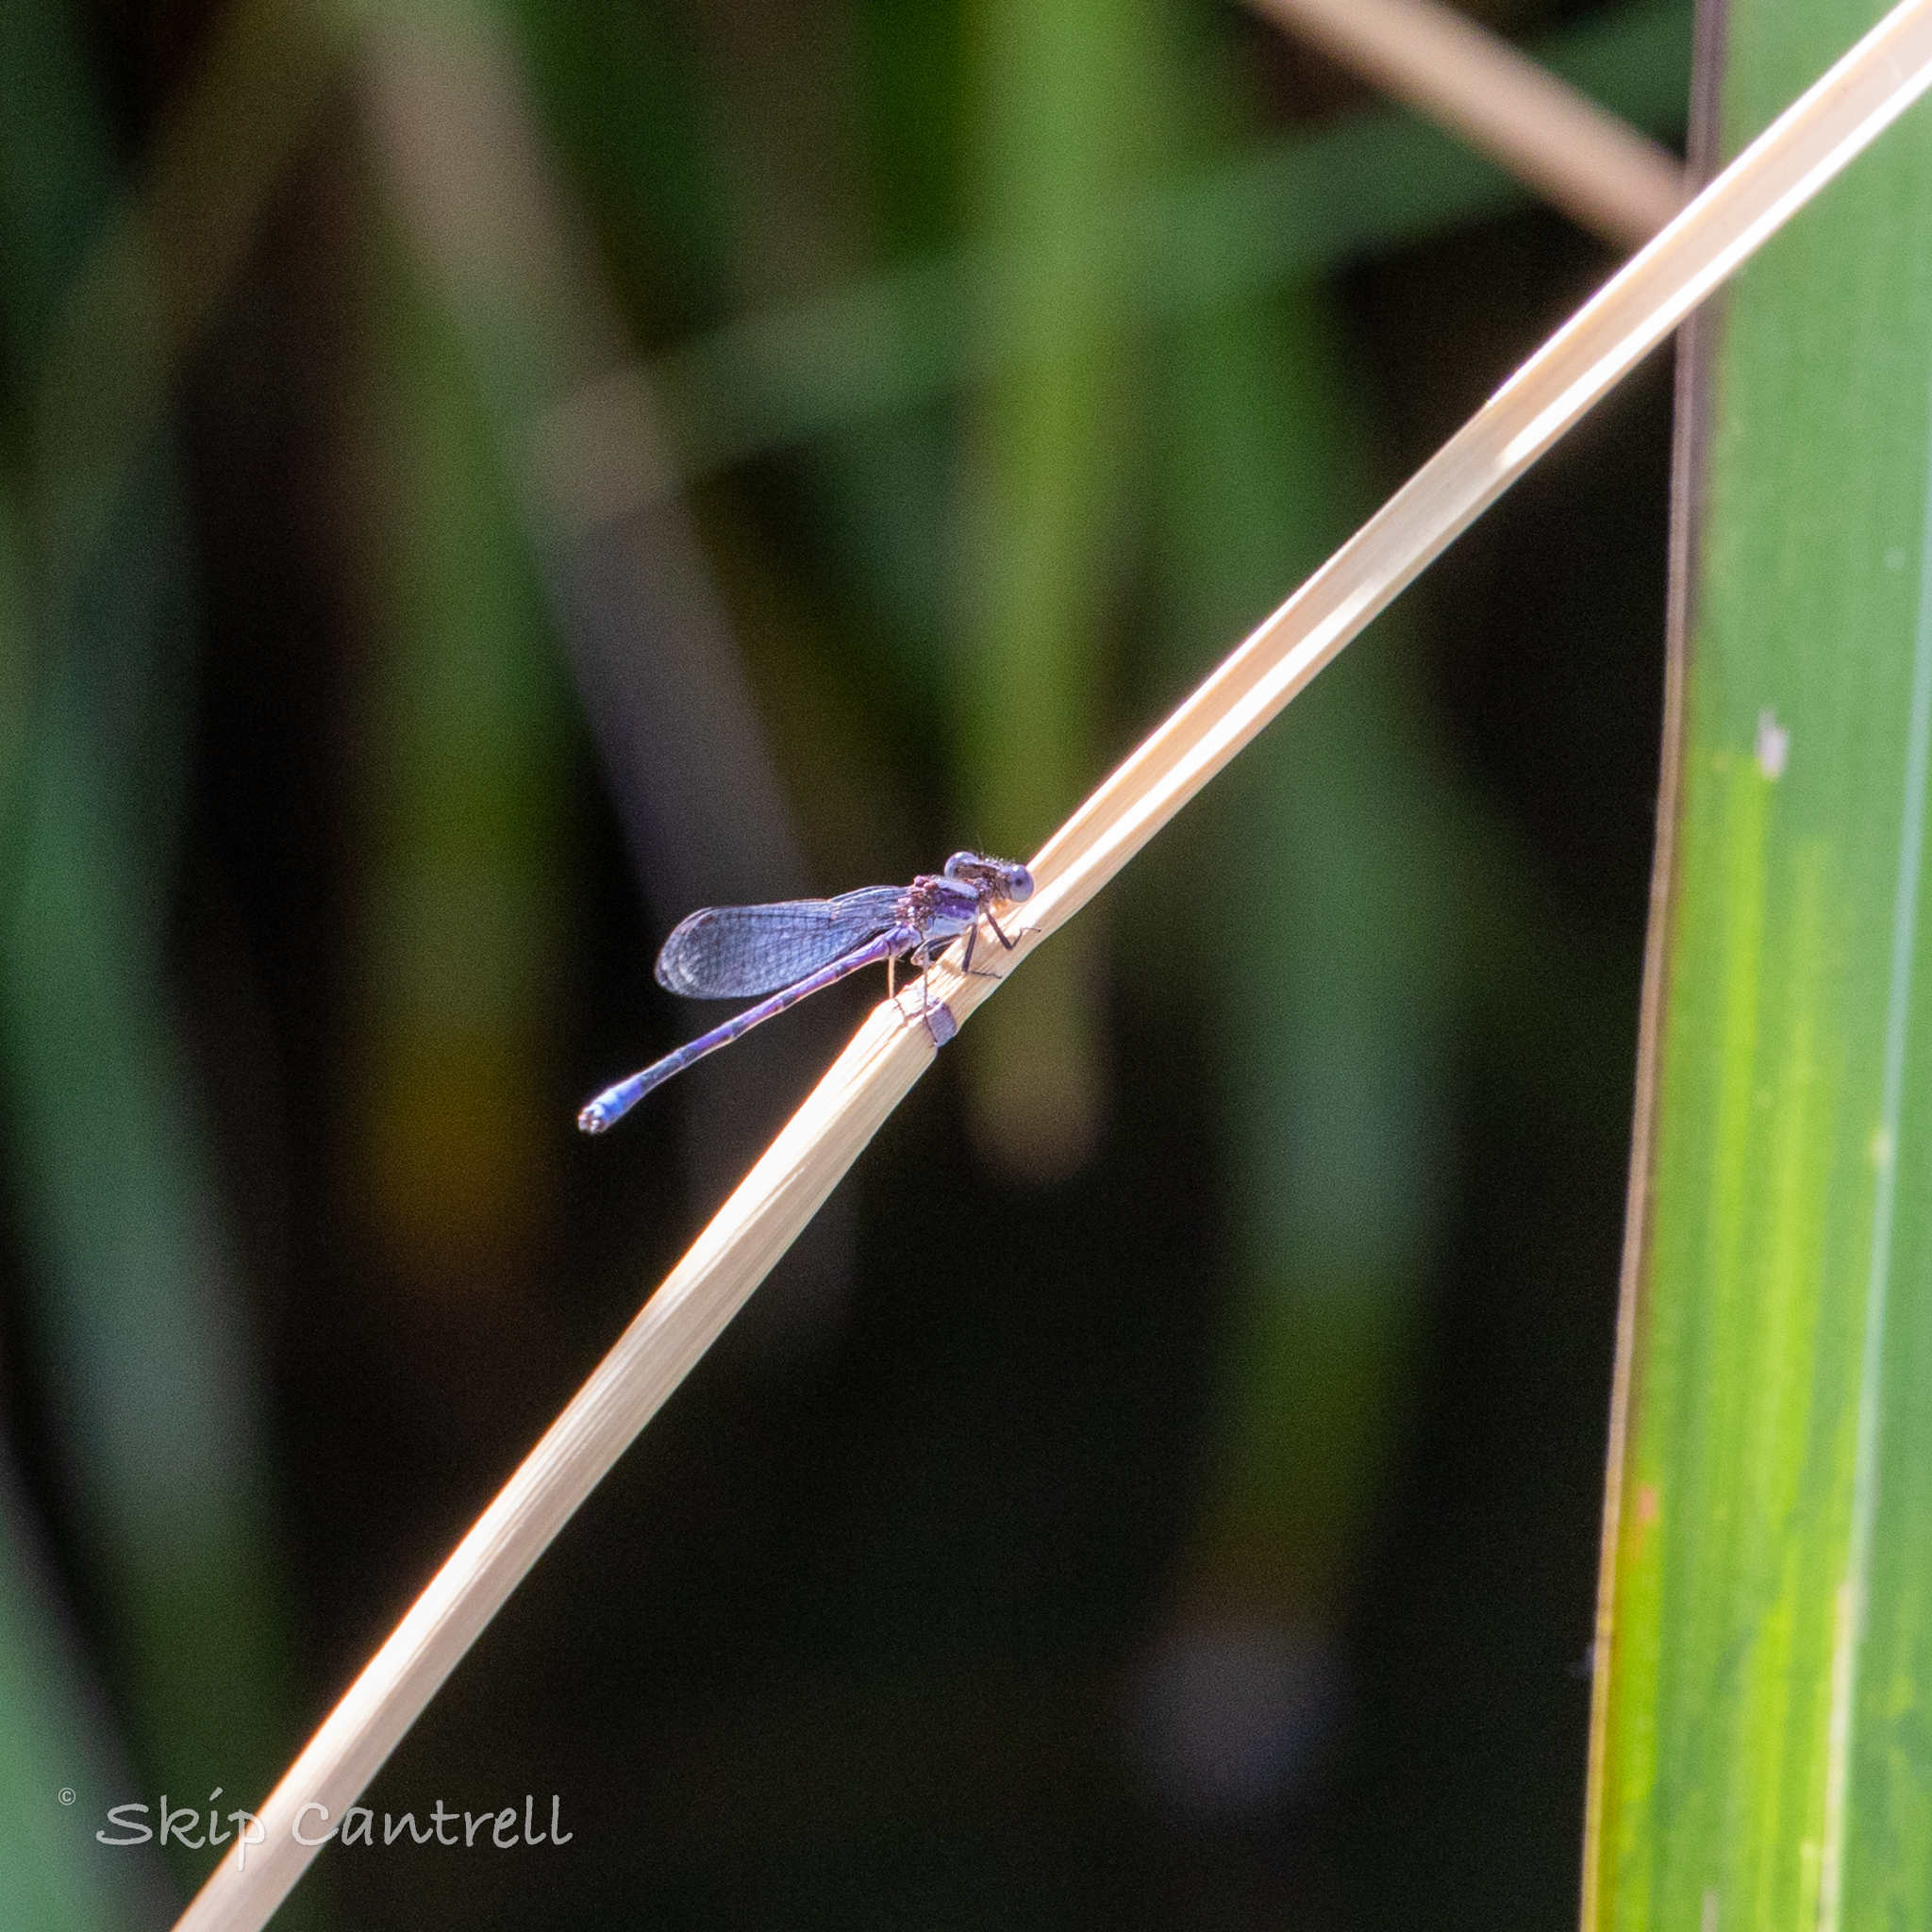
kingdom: Animalia
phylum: Arthropoda
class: Insecta
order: Odonata
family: Coenagrionidae
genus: Argia
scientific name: Argia fumipennis
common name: Variable dancer
